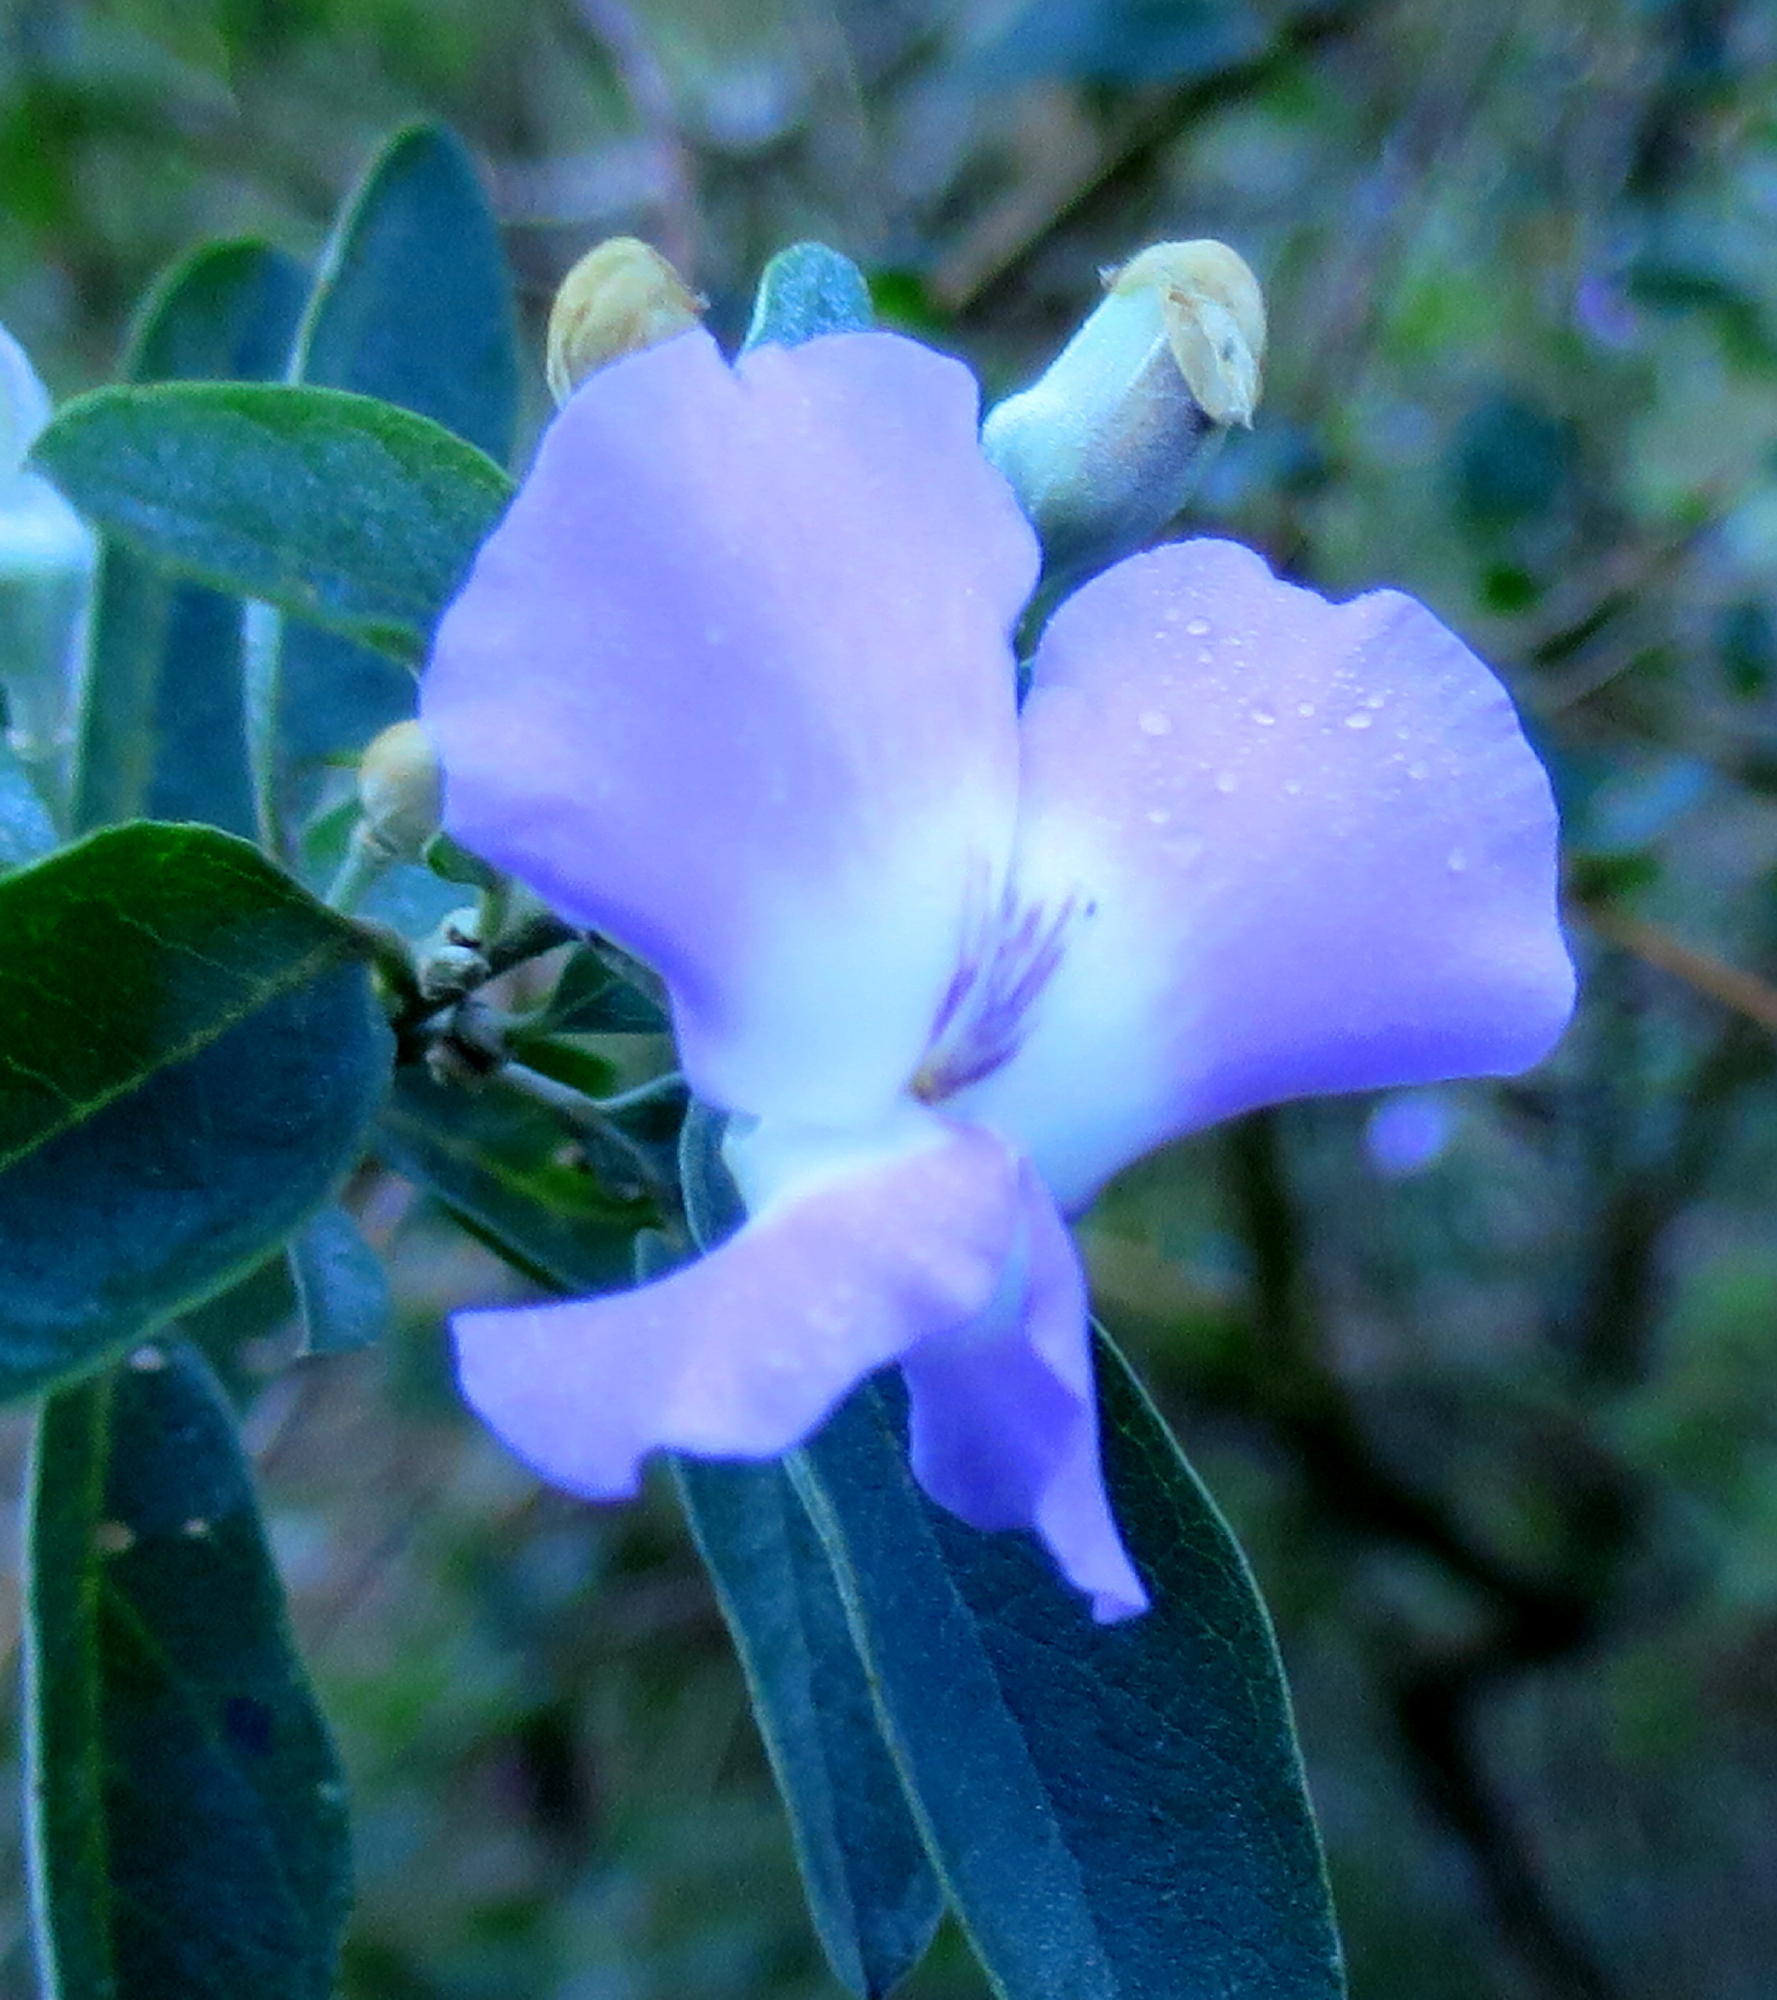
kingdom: Plantae
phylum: Tracheophyta
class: Magnoliopsida
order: Fabales
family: Fabaceae
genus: Podalyria
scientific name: Podalyria calyptrata
